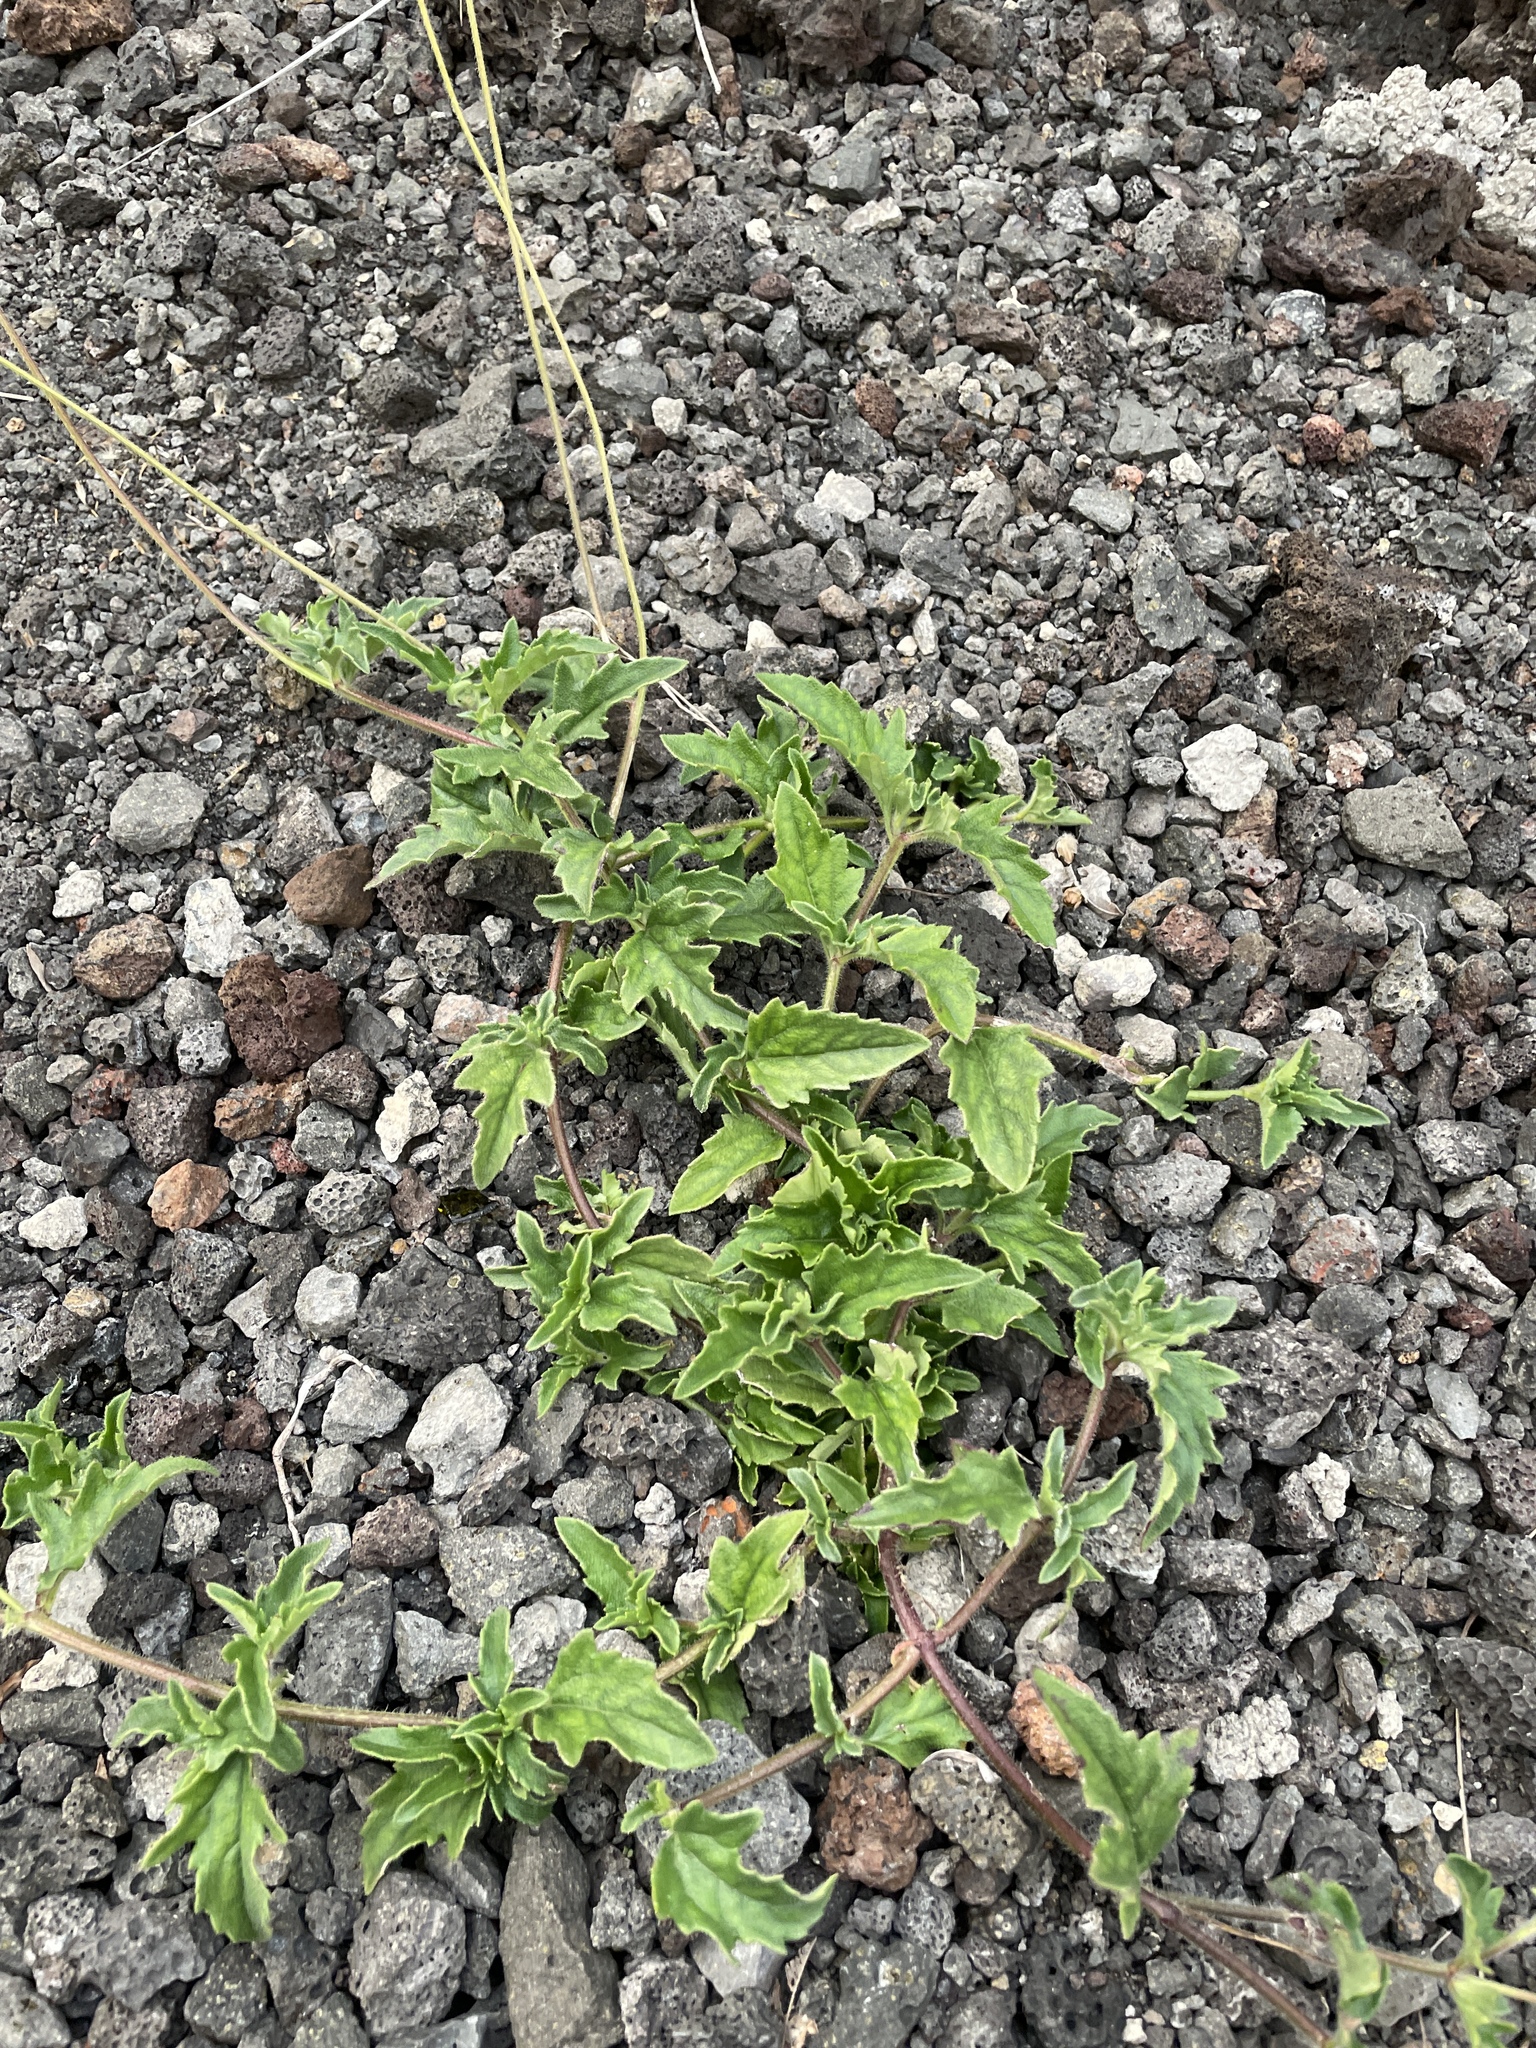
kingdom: Plantae
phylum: Tracheophyta
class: Magnoliopsida
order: Asterales
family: Asteraceae
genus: Tridax
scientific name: Tridax procumbens
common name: Coatbuttons
